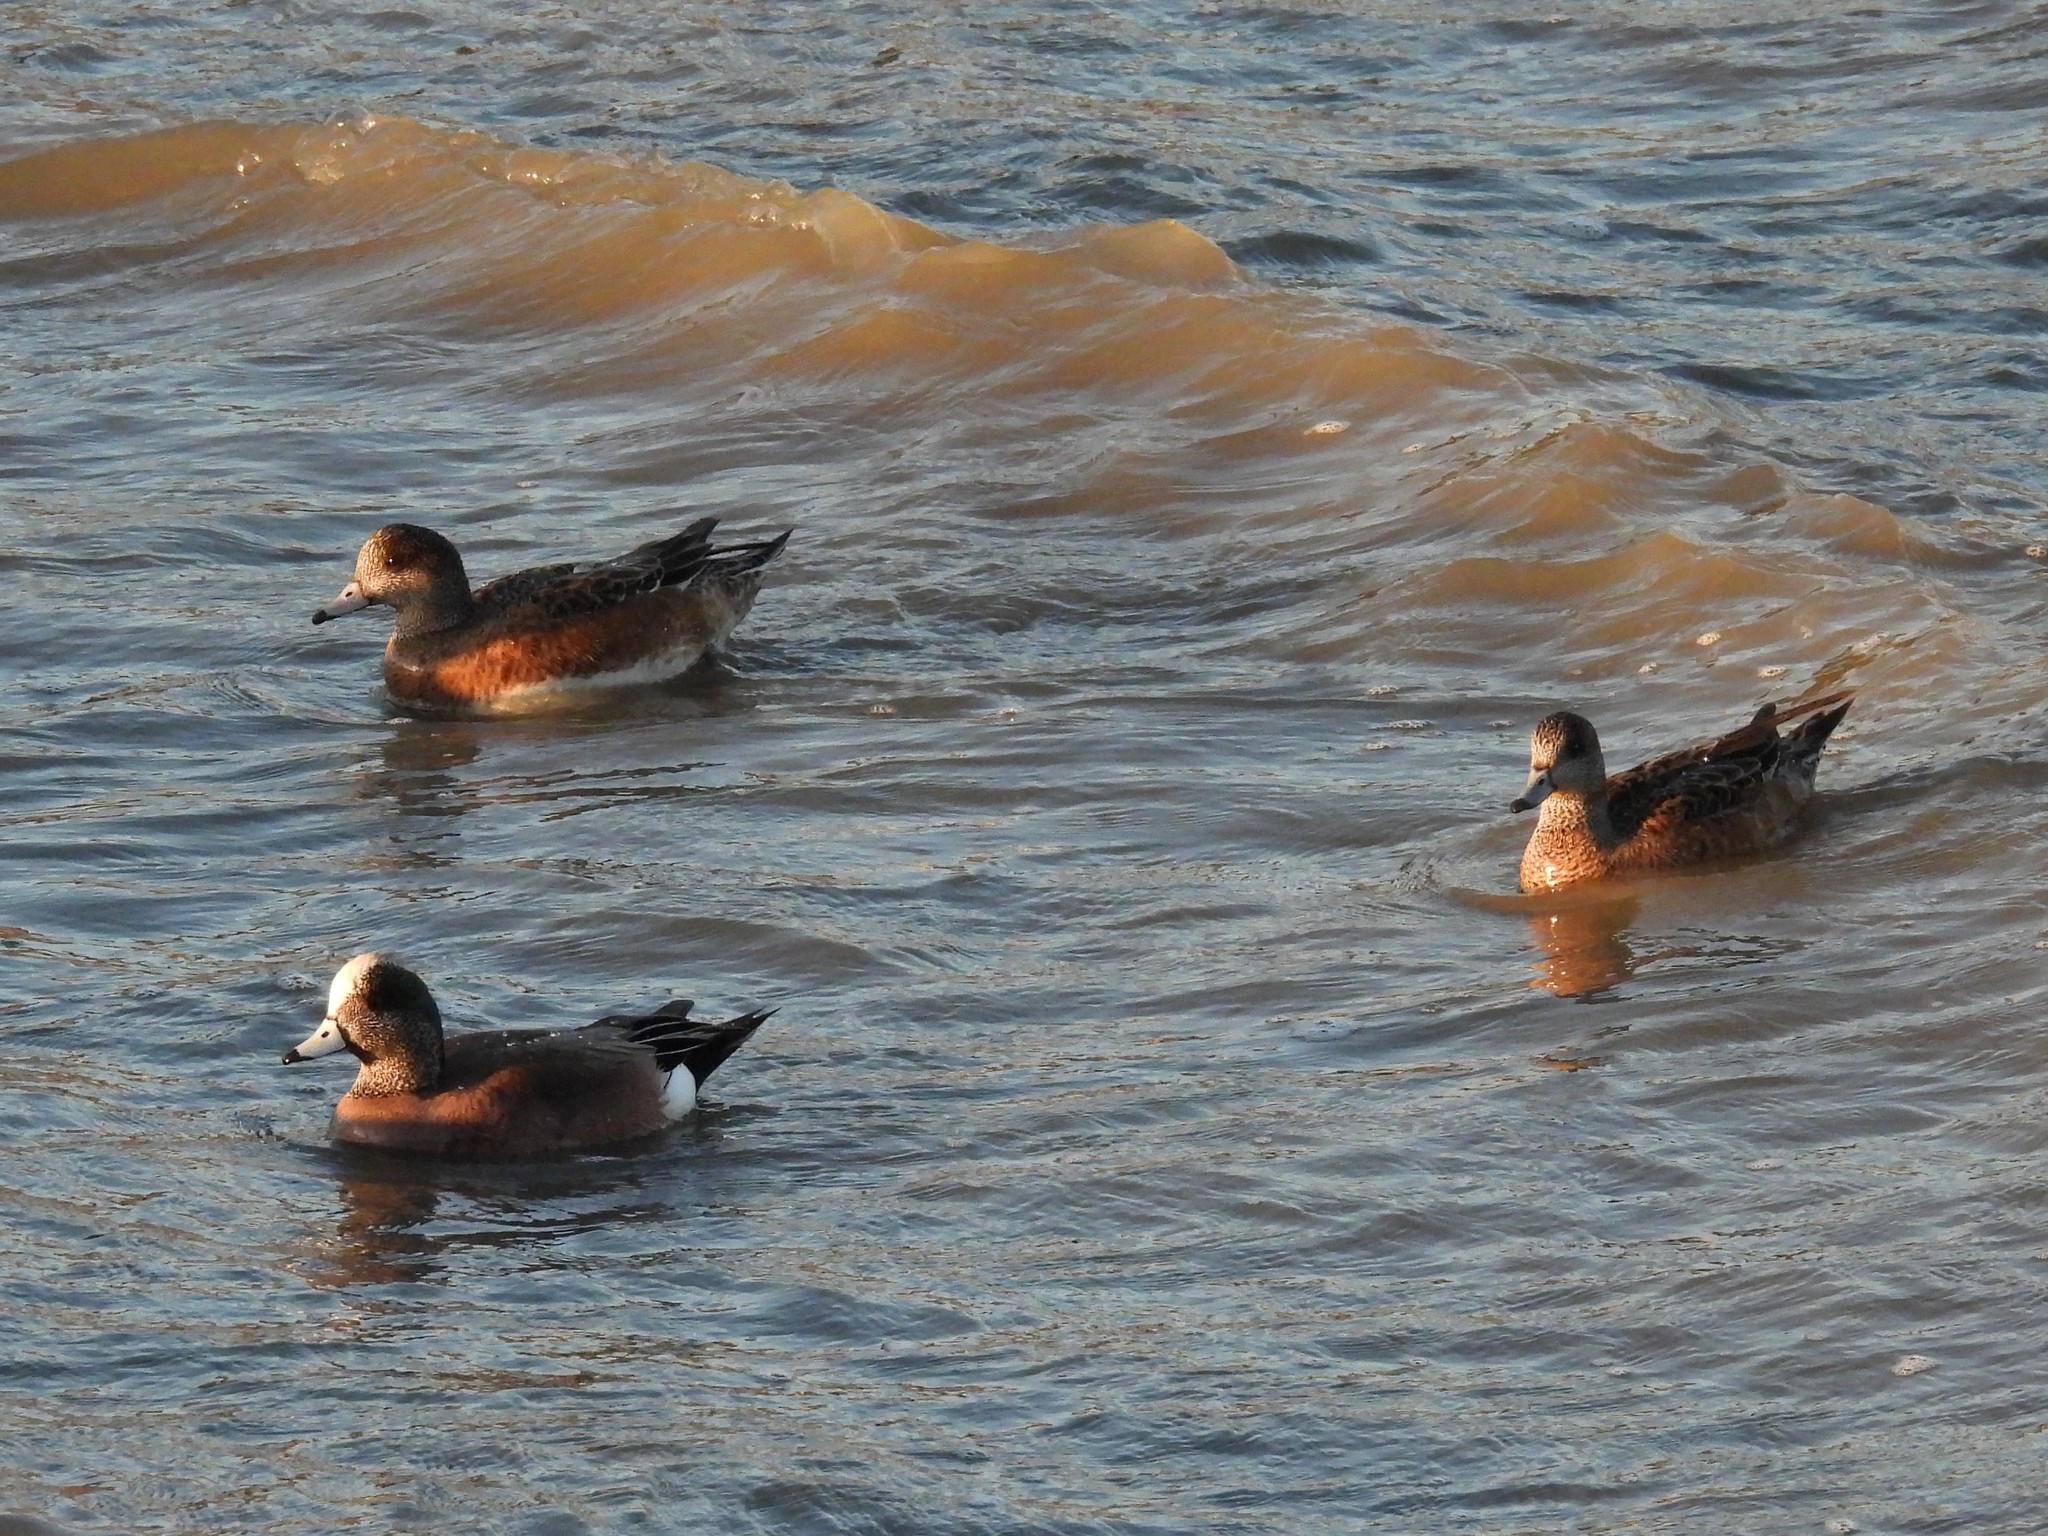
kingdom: Animalia
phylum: Chordata
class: Aves
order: Anseriformes
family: Anatidae
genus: Mareca
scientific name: Mareca americana
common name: American wigeon
